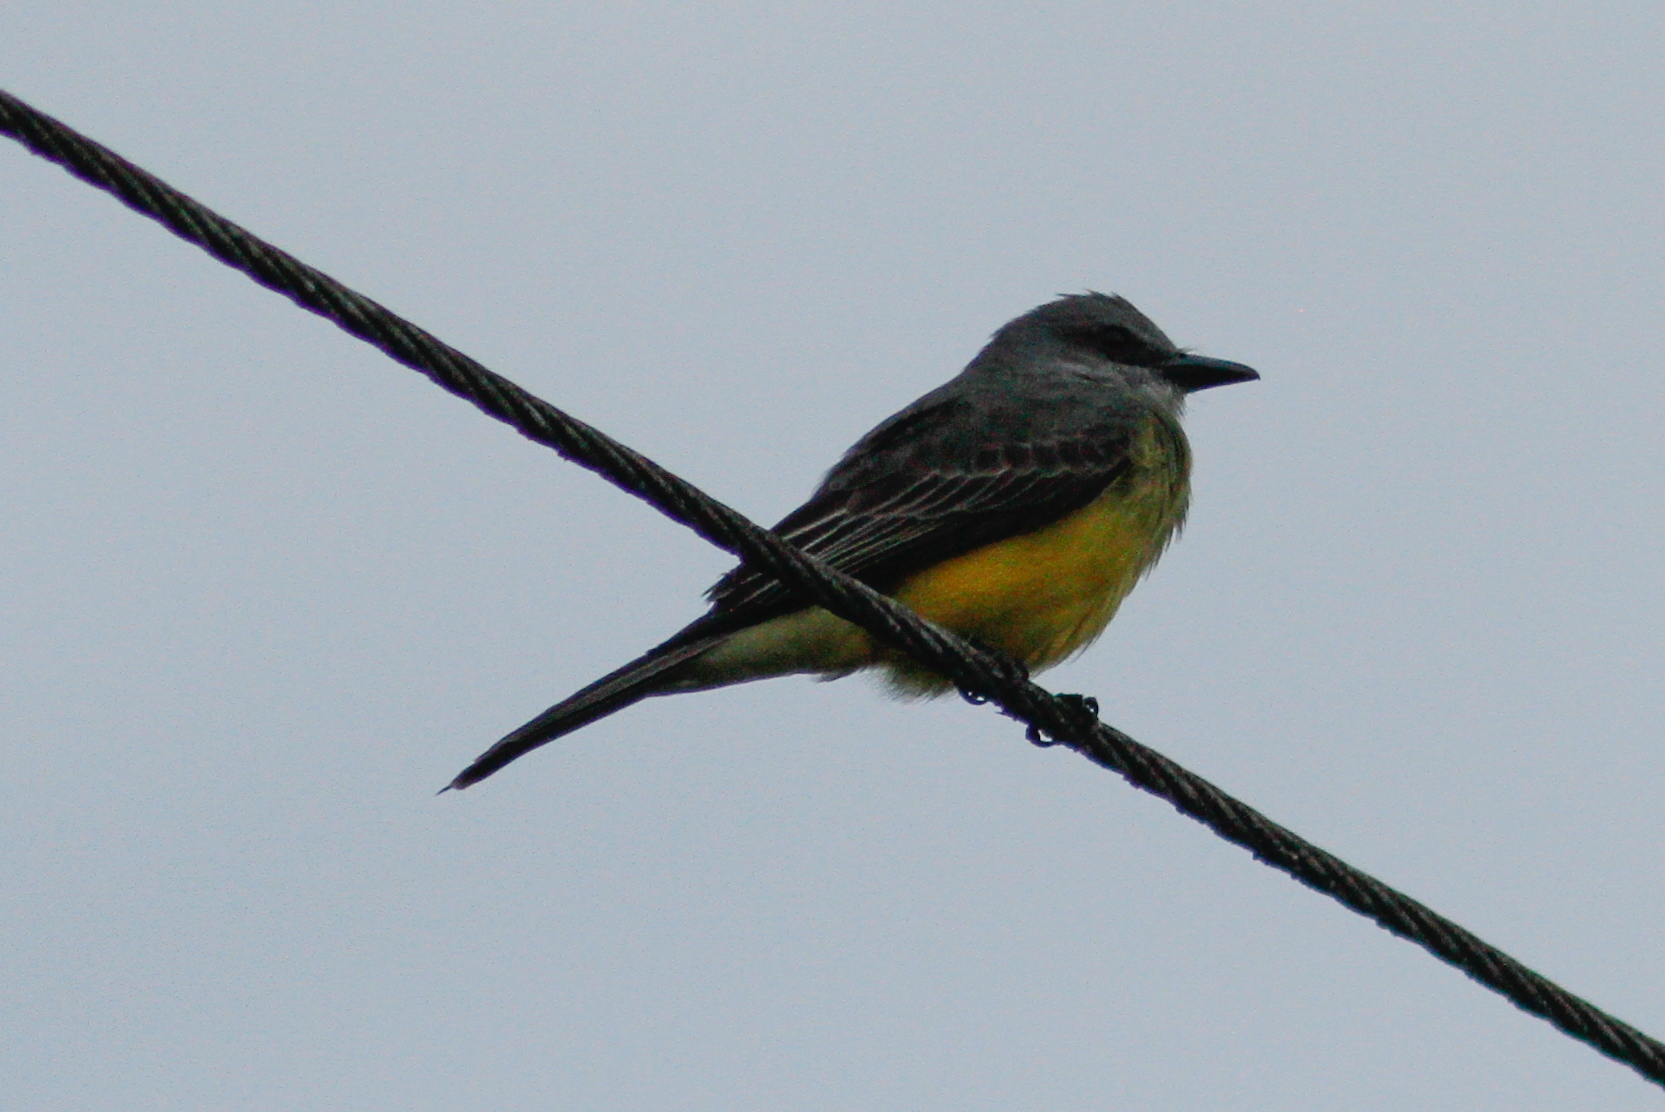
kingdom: Animalia
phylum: Chordata
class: Aves
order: Passeriformes
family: Tyrannidae
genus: Tyrannus
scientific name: Tyrannus melancholicus
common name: Tropical kingbird
